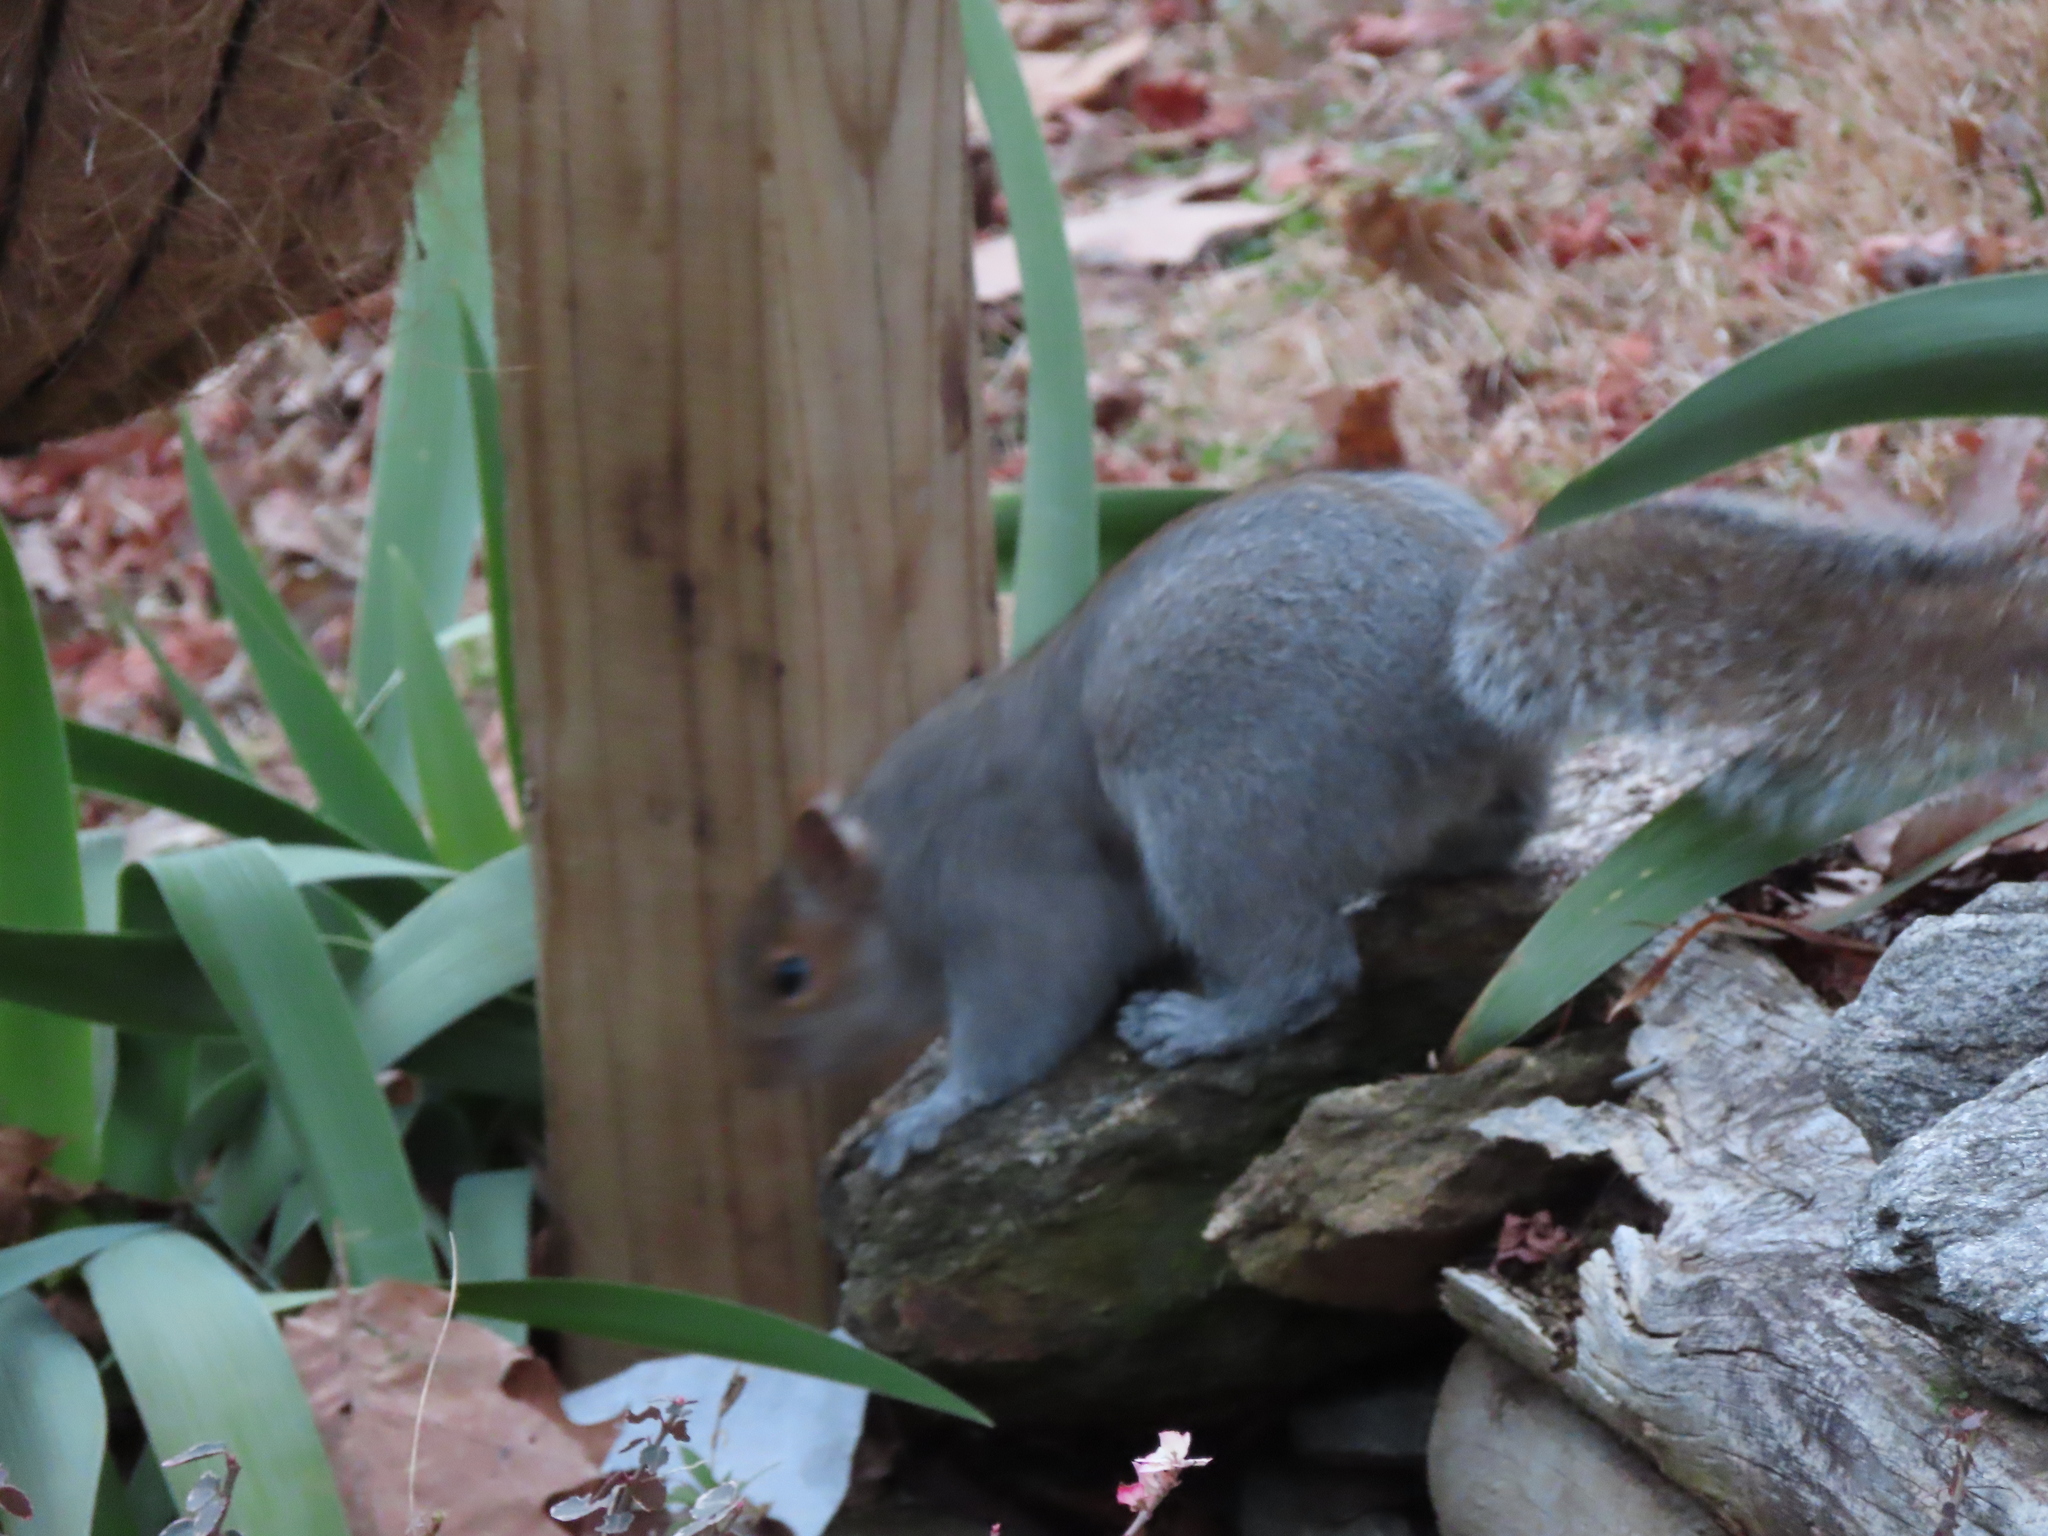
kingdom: Animalia
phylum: Chordata
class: Mammalia
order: Rodentia
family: Sciuridae
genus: Sciurus
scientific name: Sciurus carolinensis
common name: Eastern gray squirrel
